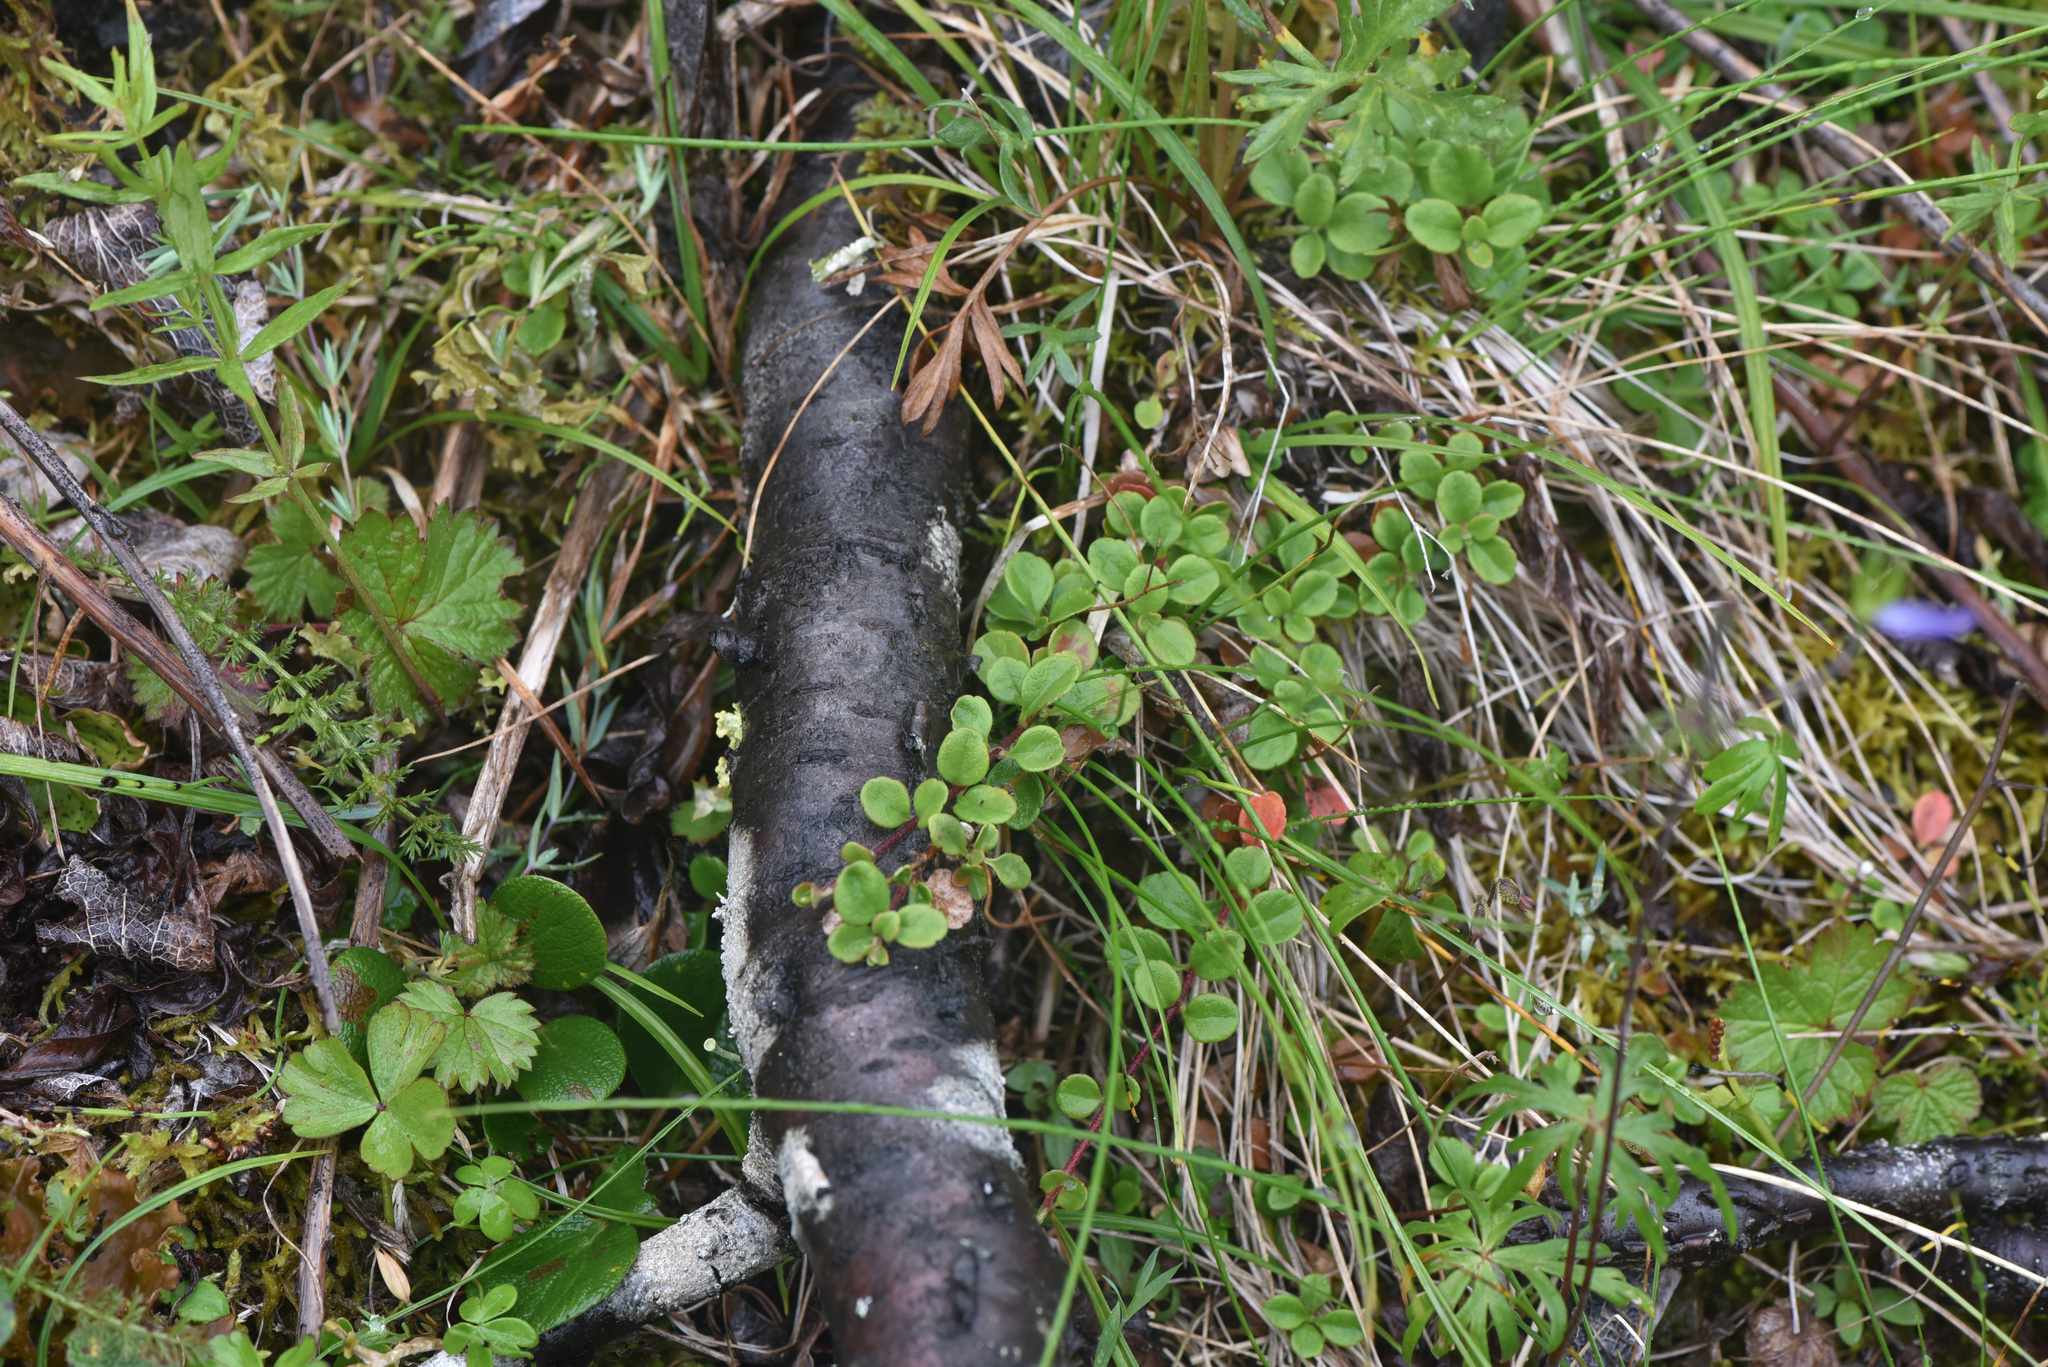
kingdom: Plantae
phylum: Tracheophyta
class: Magnoliopsida
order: Dipsacales
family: Caprifoliaceae
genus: Linnaea
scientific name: Linnaea borealis
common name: Twinflower
